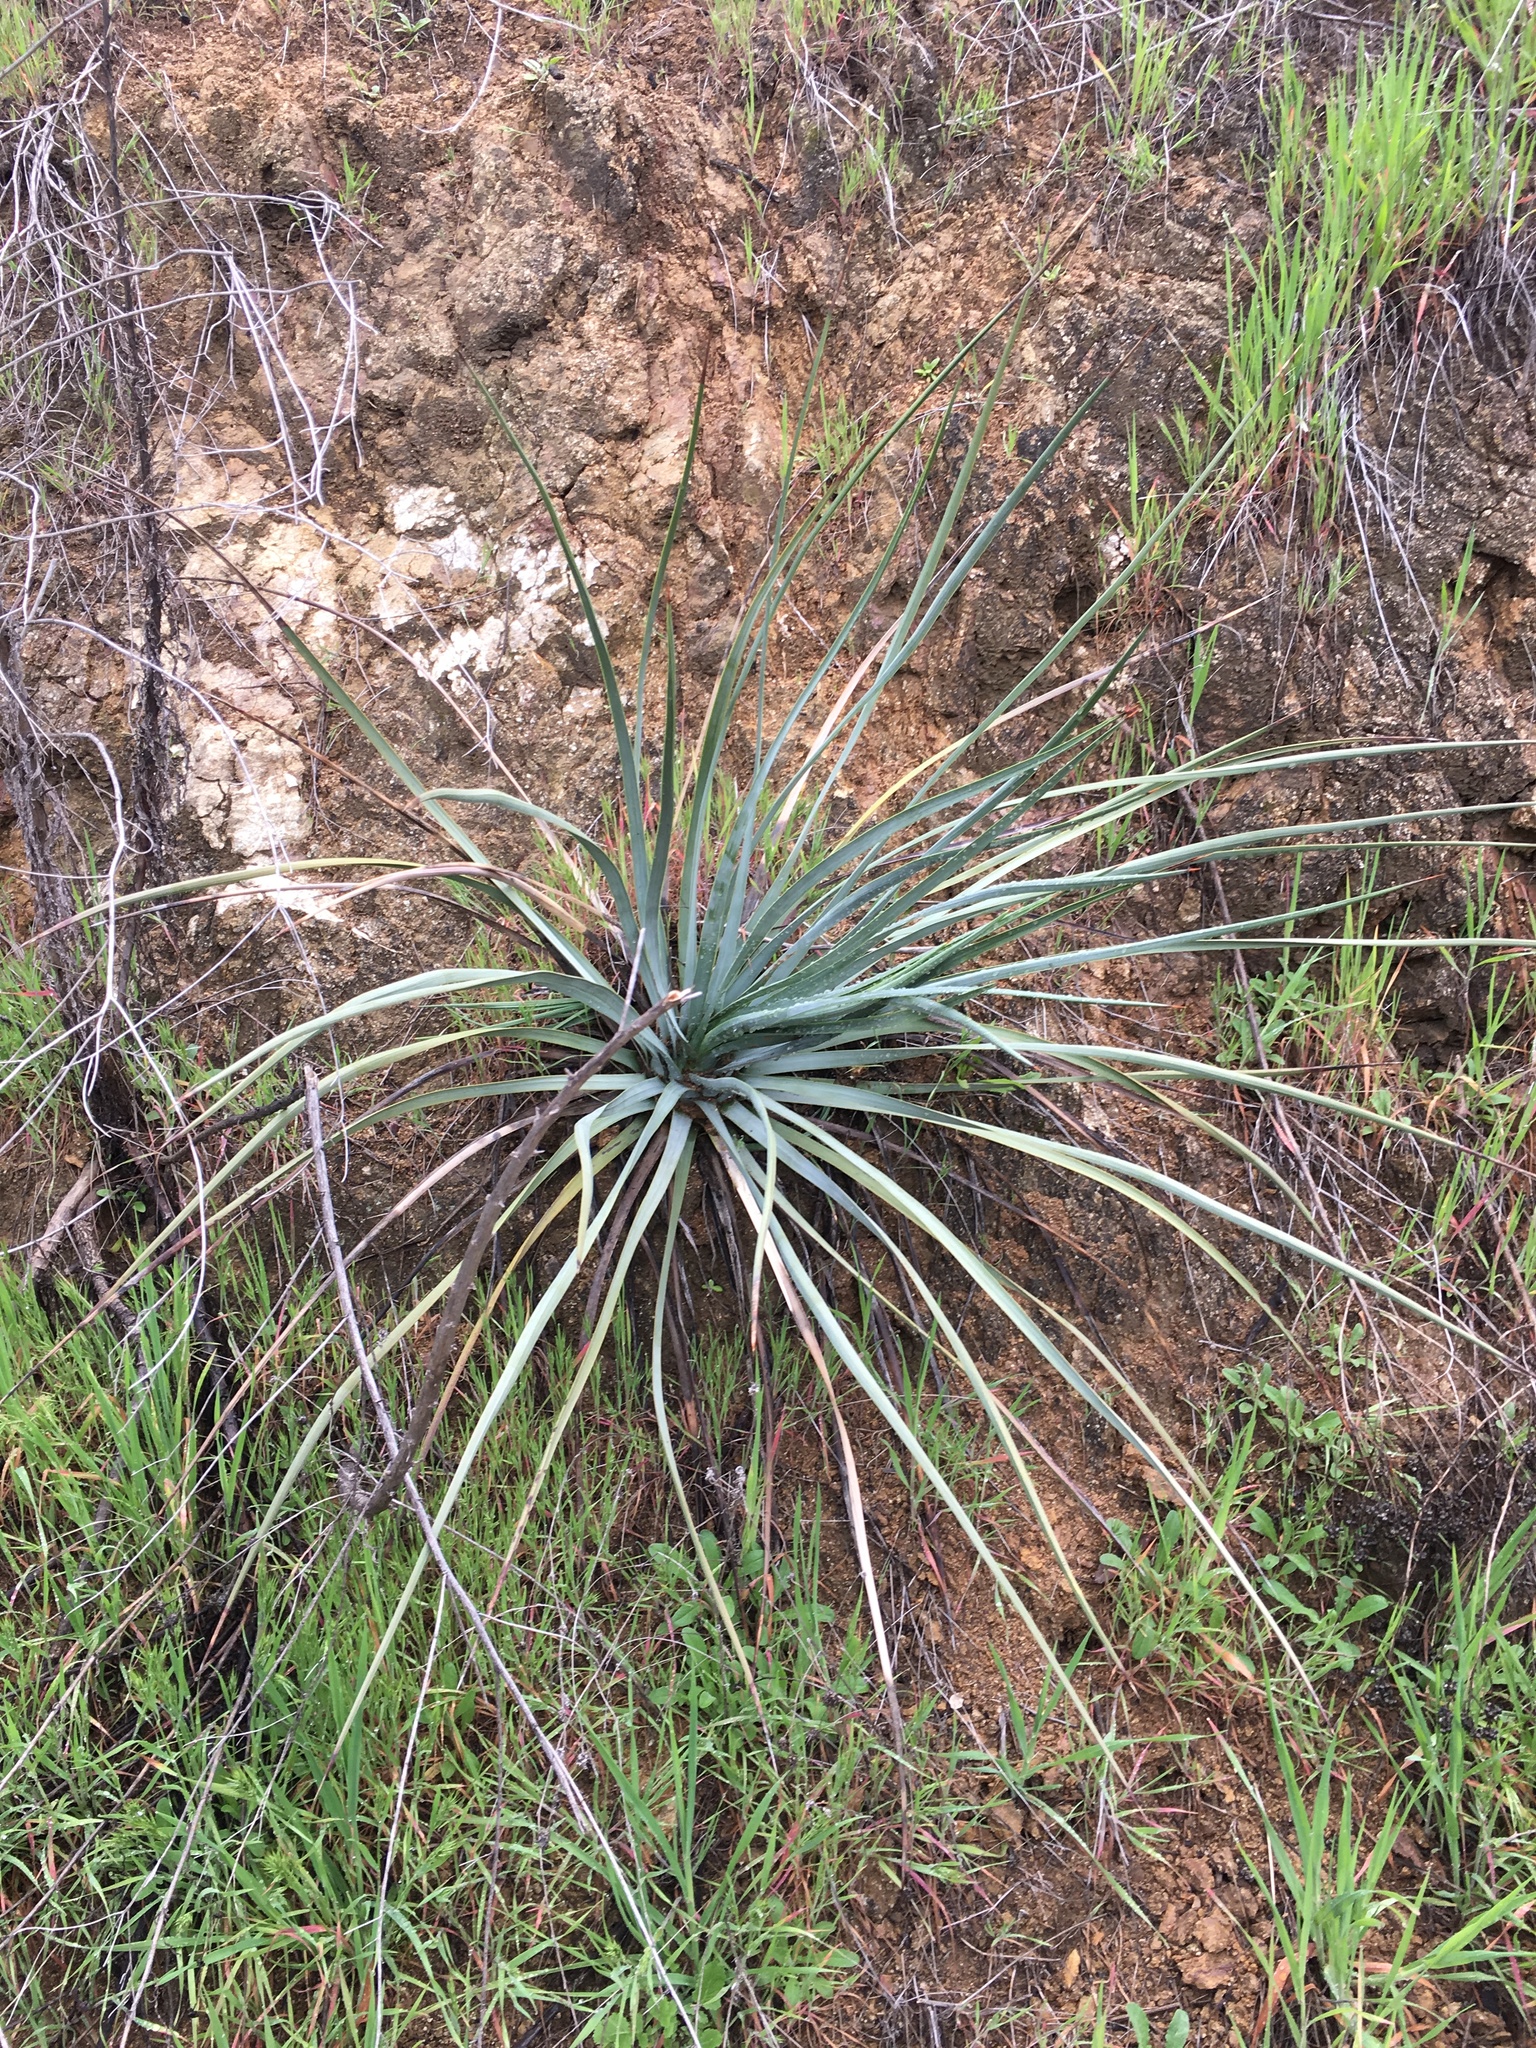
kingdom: Plantae
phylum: Tracheophyta
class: Liliopsida
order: Asparagales
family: Asparagaceae
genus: Hesperoyucca
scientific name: Hesperoyucca whipplei
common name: Our lord's-candle
